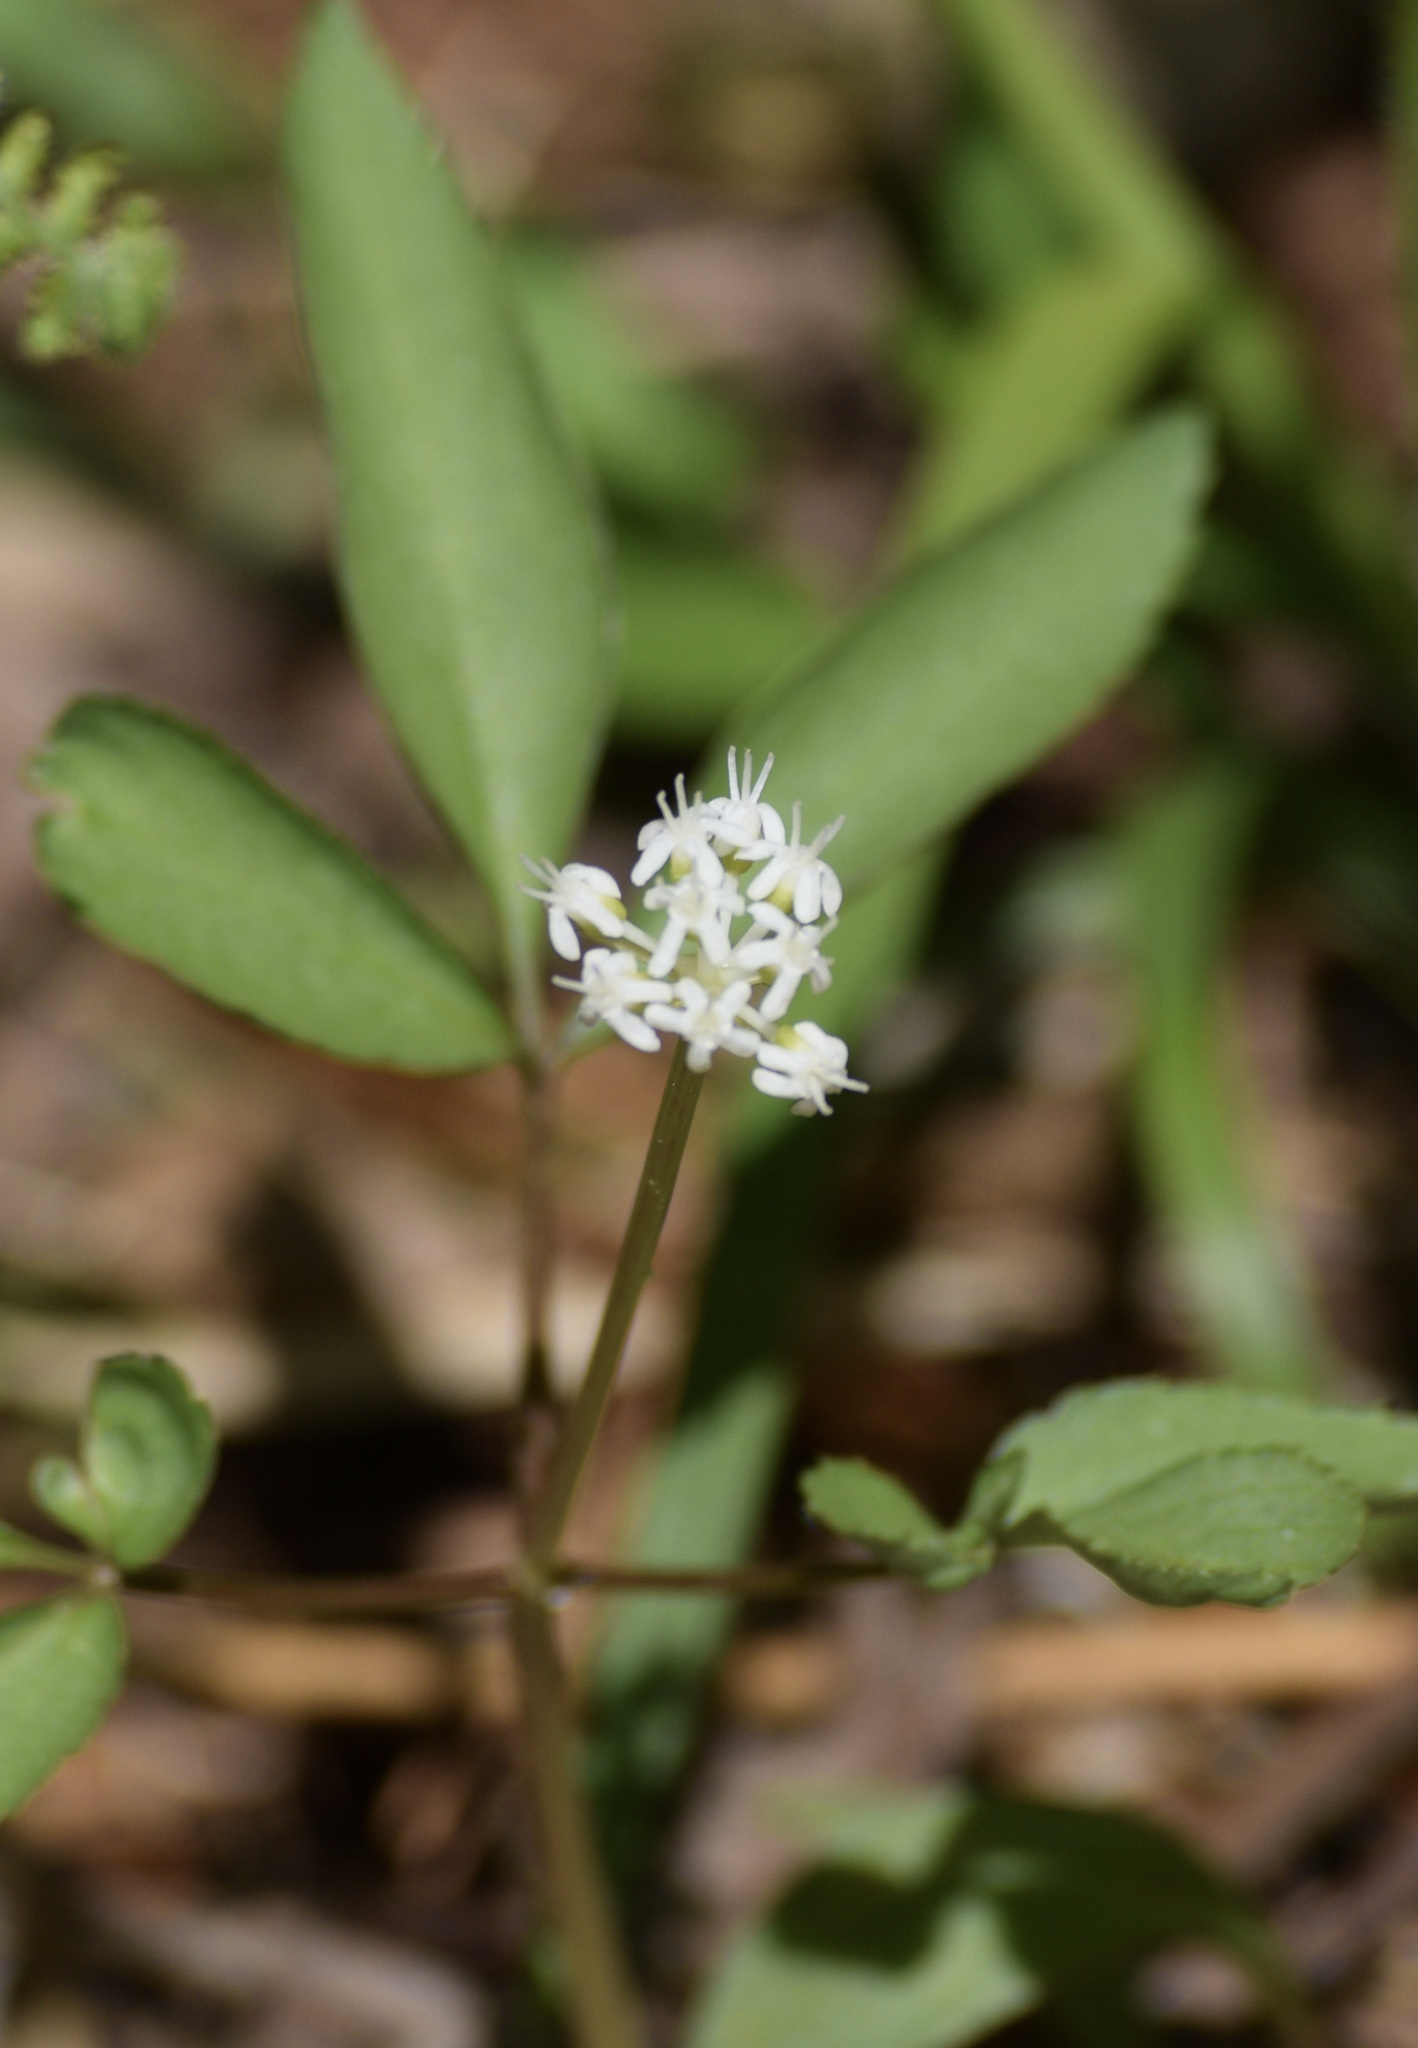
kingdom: Plantae
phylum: Tracheophyta
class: Magnoliopsida
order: Apiales
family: Araliaceae
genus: Panax
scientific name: Panax trifolius
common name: Dwarf ginseng
